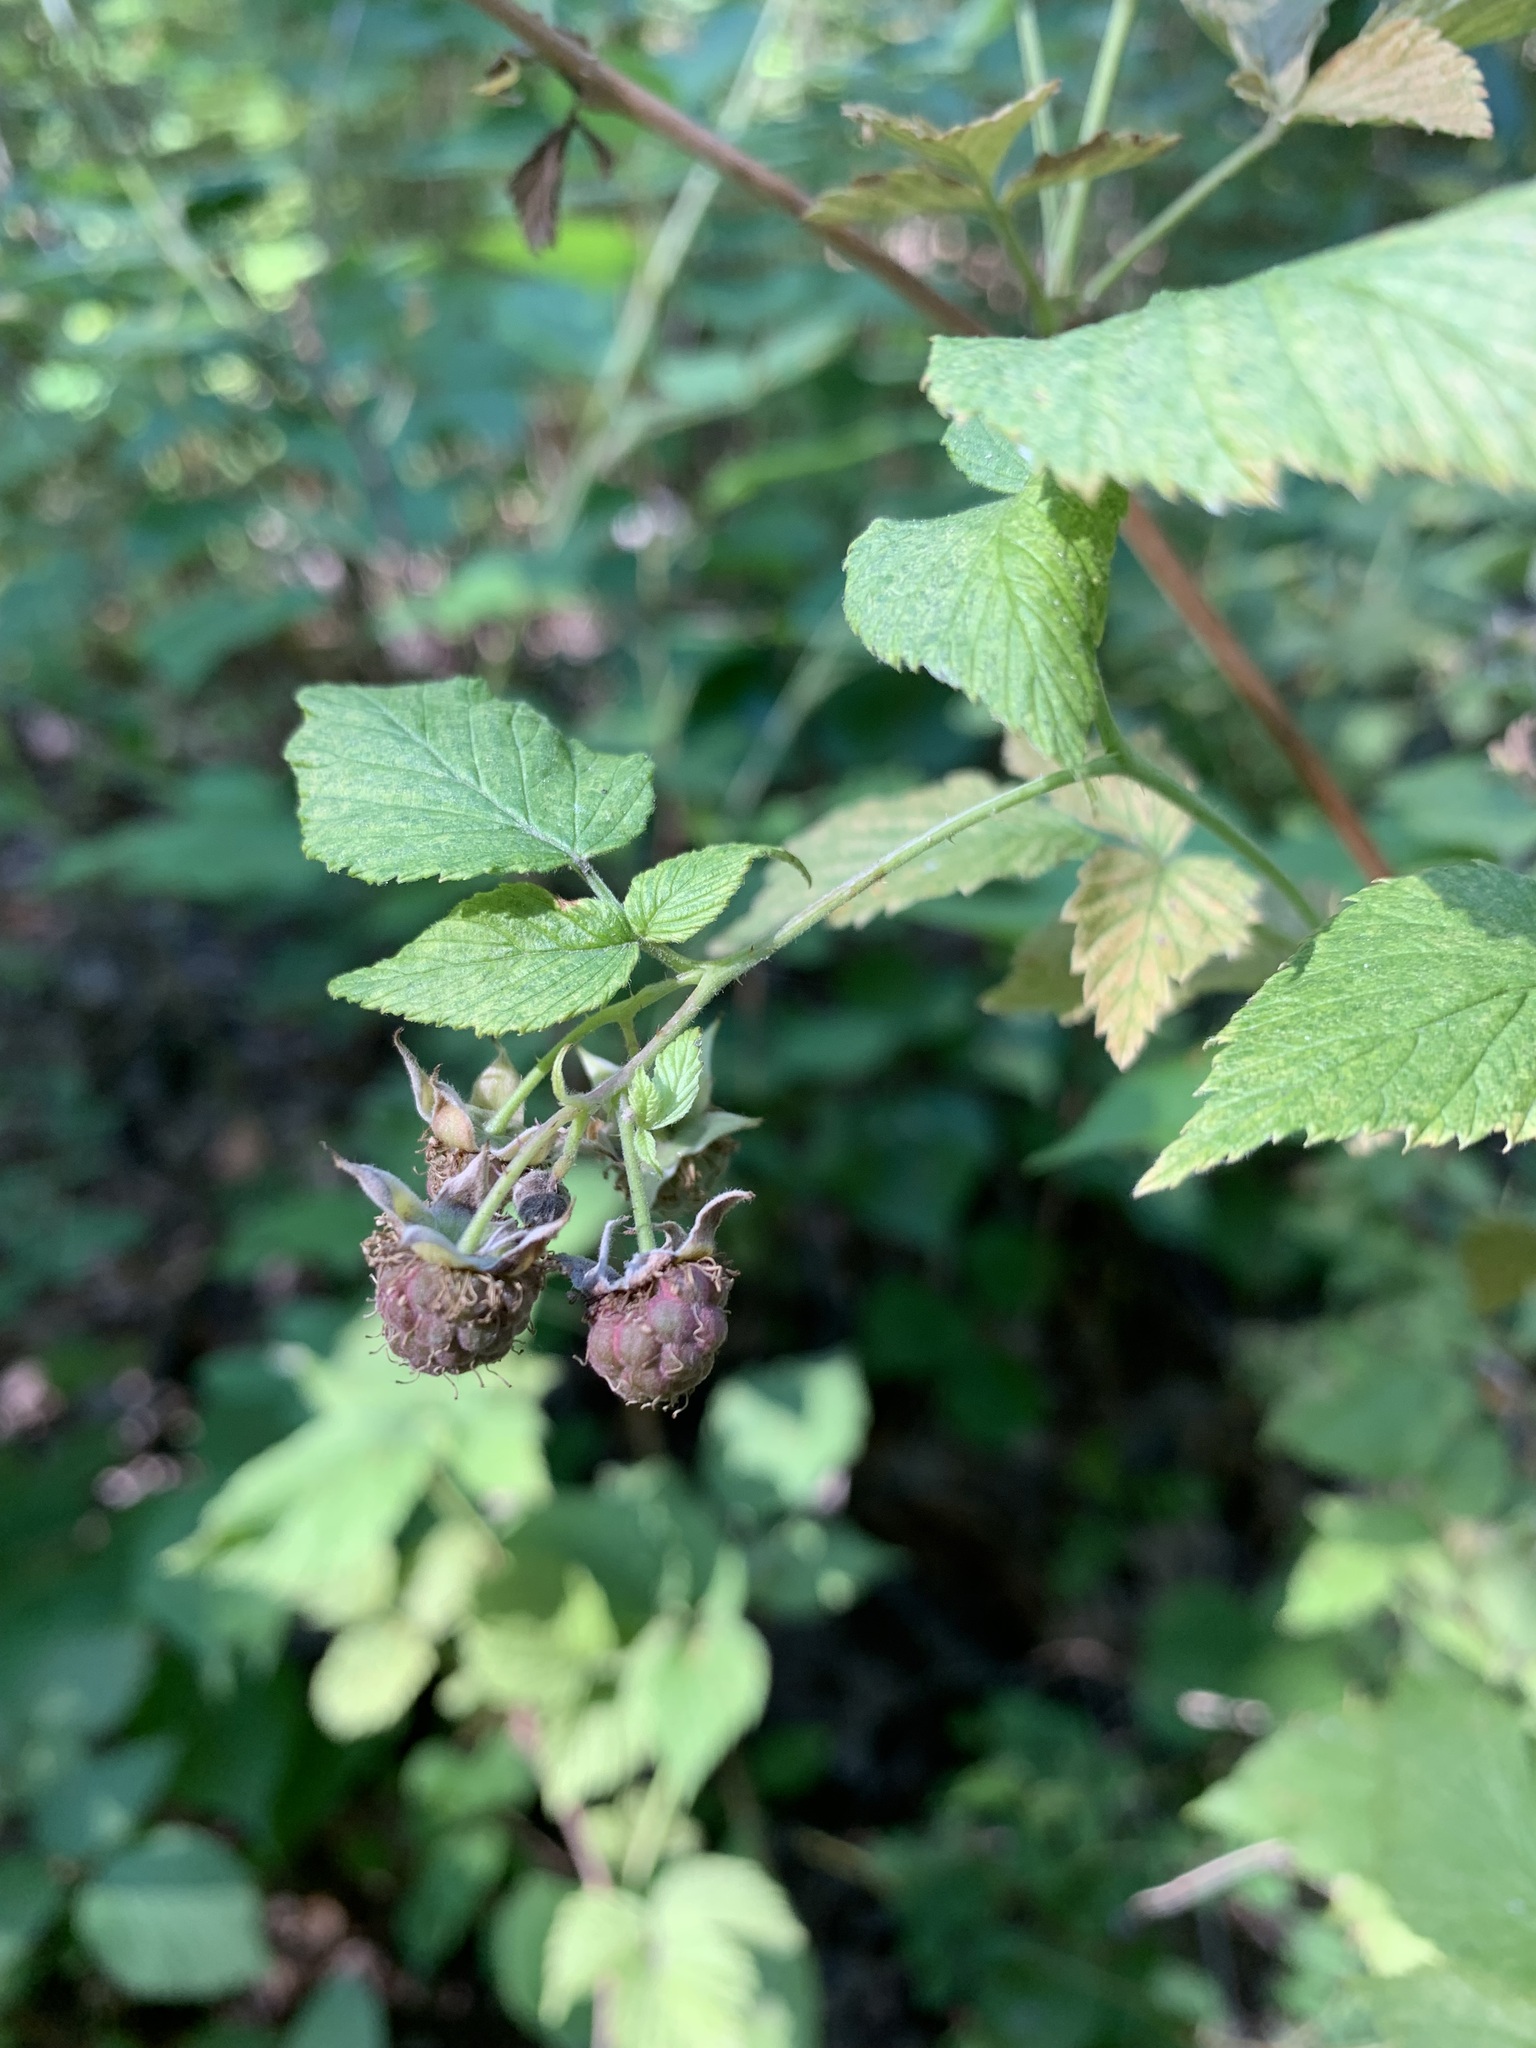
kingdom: Plantae
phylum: Tracheophyta
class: Magnoliopsida
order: Rosales
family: Rosaceae
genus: Rubus
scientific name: Rubus idaeus
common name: Raspberry
